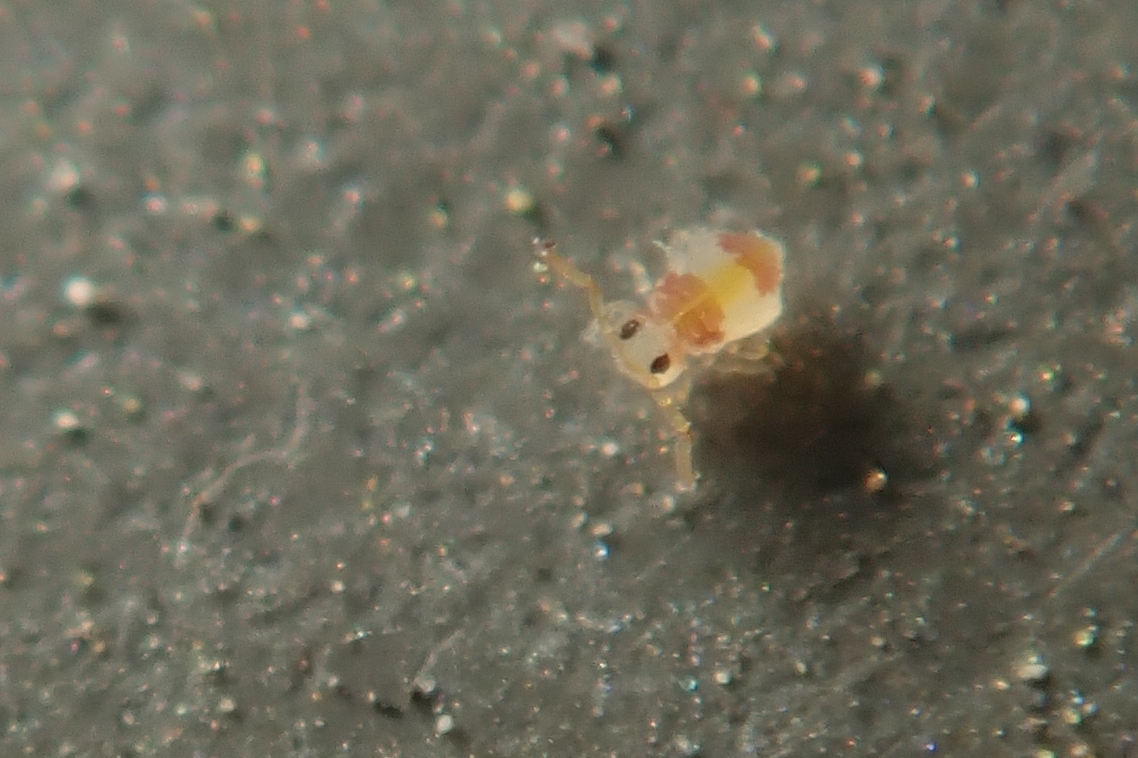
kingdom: Animalia
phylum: Arthropoda
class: Collembola
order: Symphypleona
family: Bourletiellidae
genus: Deuterosminthurus
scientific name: Deuterosminthurus bicinctus
